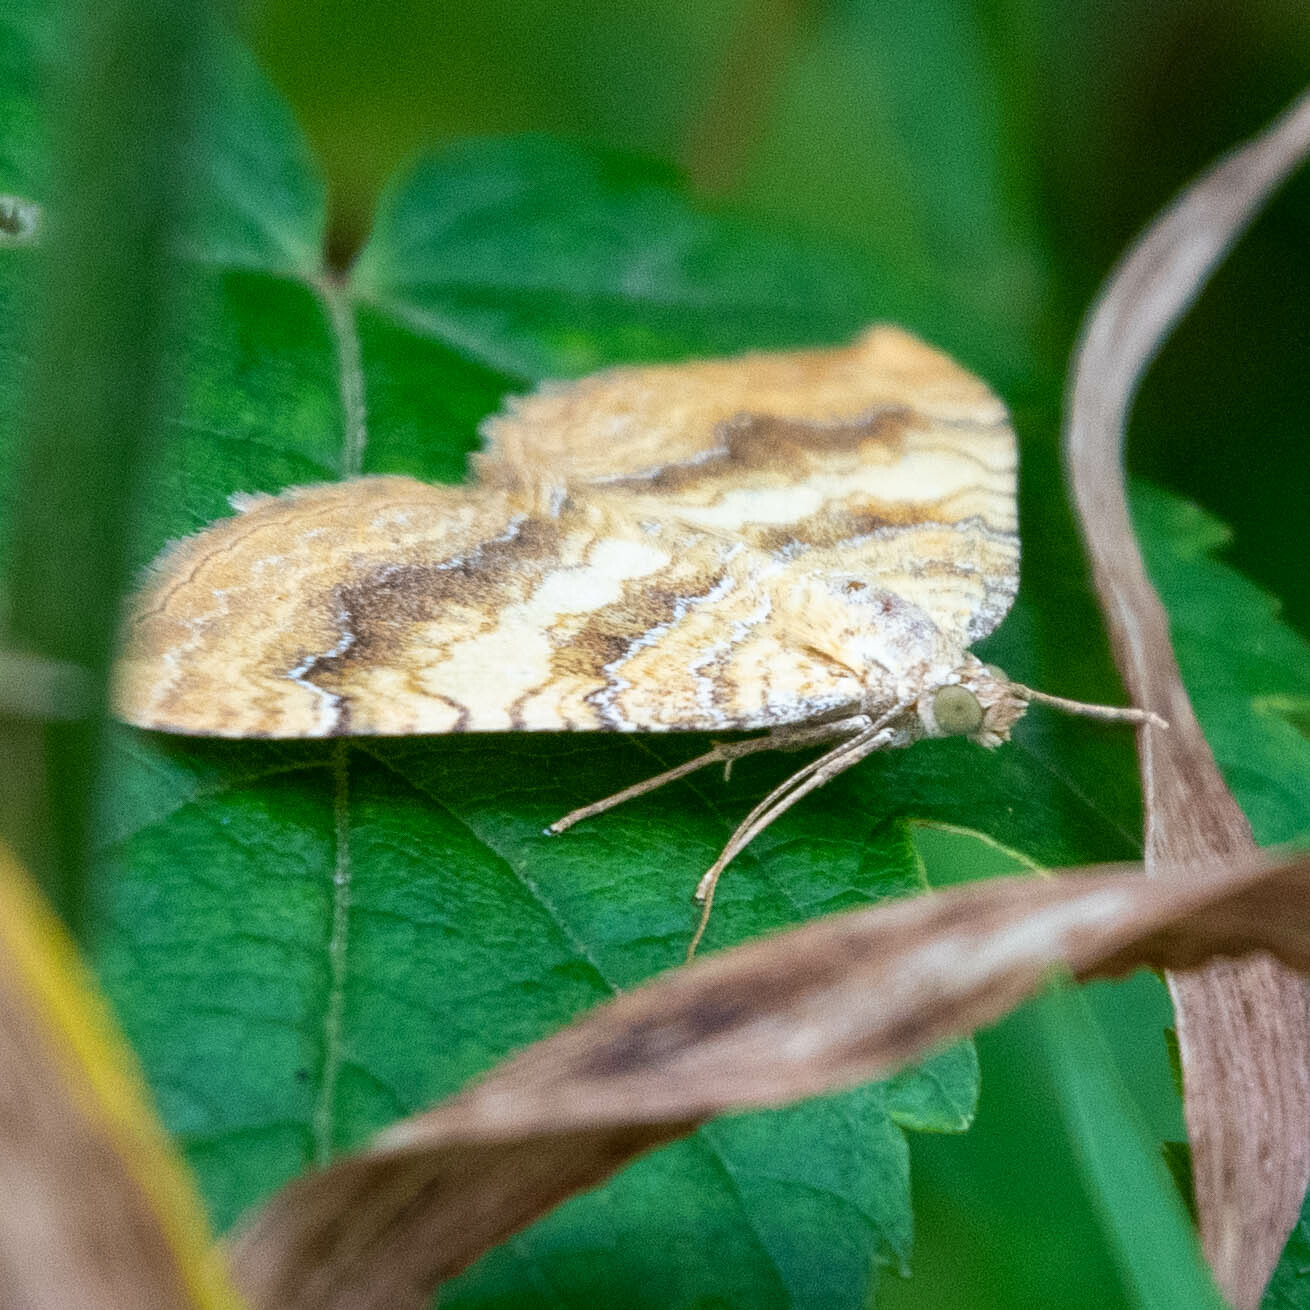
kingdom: Animalia
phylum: Arthropoda
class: Insecta
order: Lepidoptera
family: Geometridae
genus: Camptogramma
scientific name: Camptogramma bilineata
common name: Yellow shell
